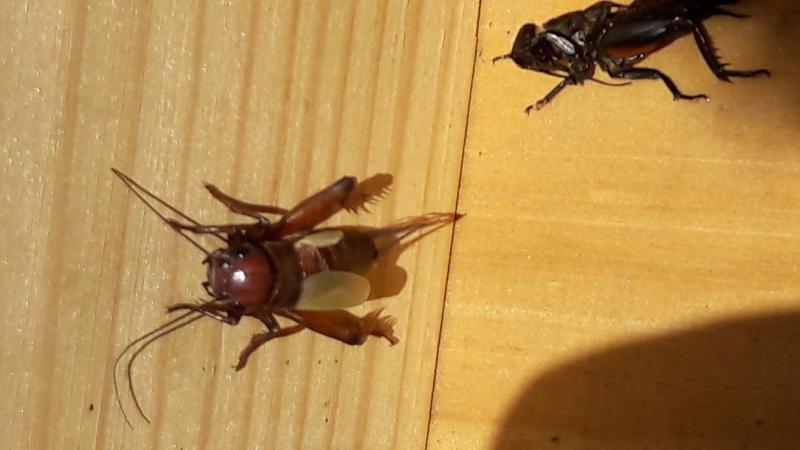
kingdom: Animalia
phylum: Arthropoda
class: Insecta
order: Orthoptera
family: Gryllidae
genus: Gryllus
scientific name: Gryllus campestris
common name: Field cricket
